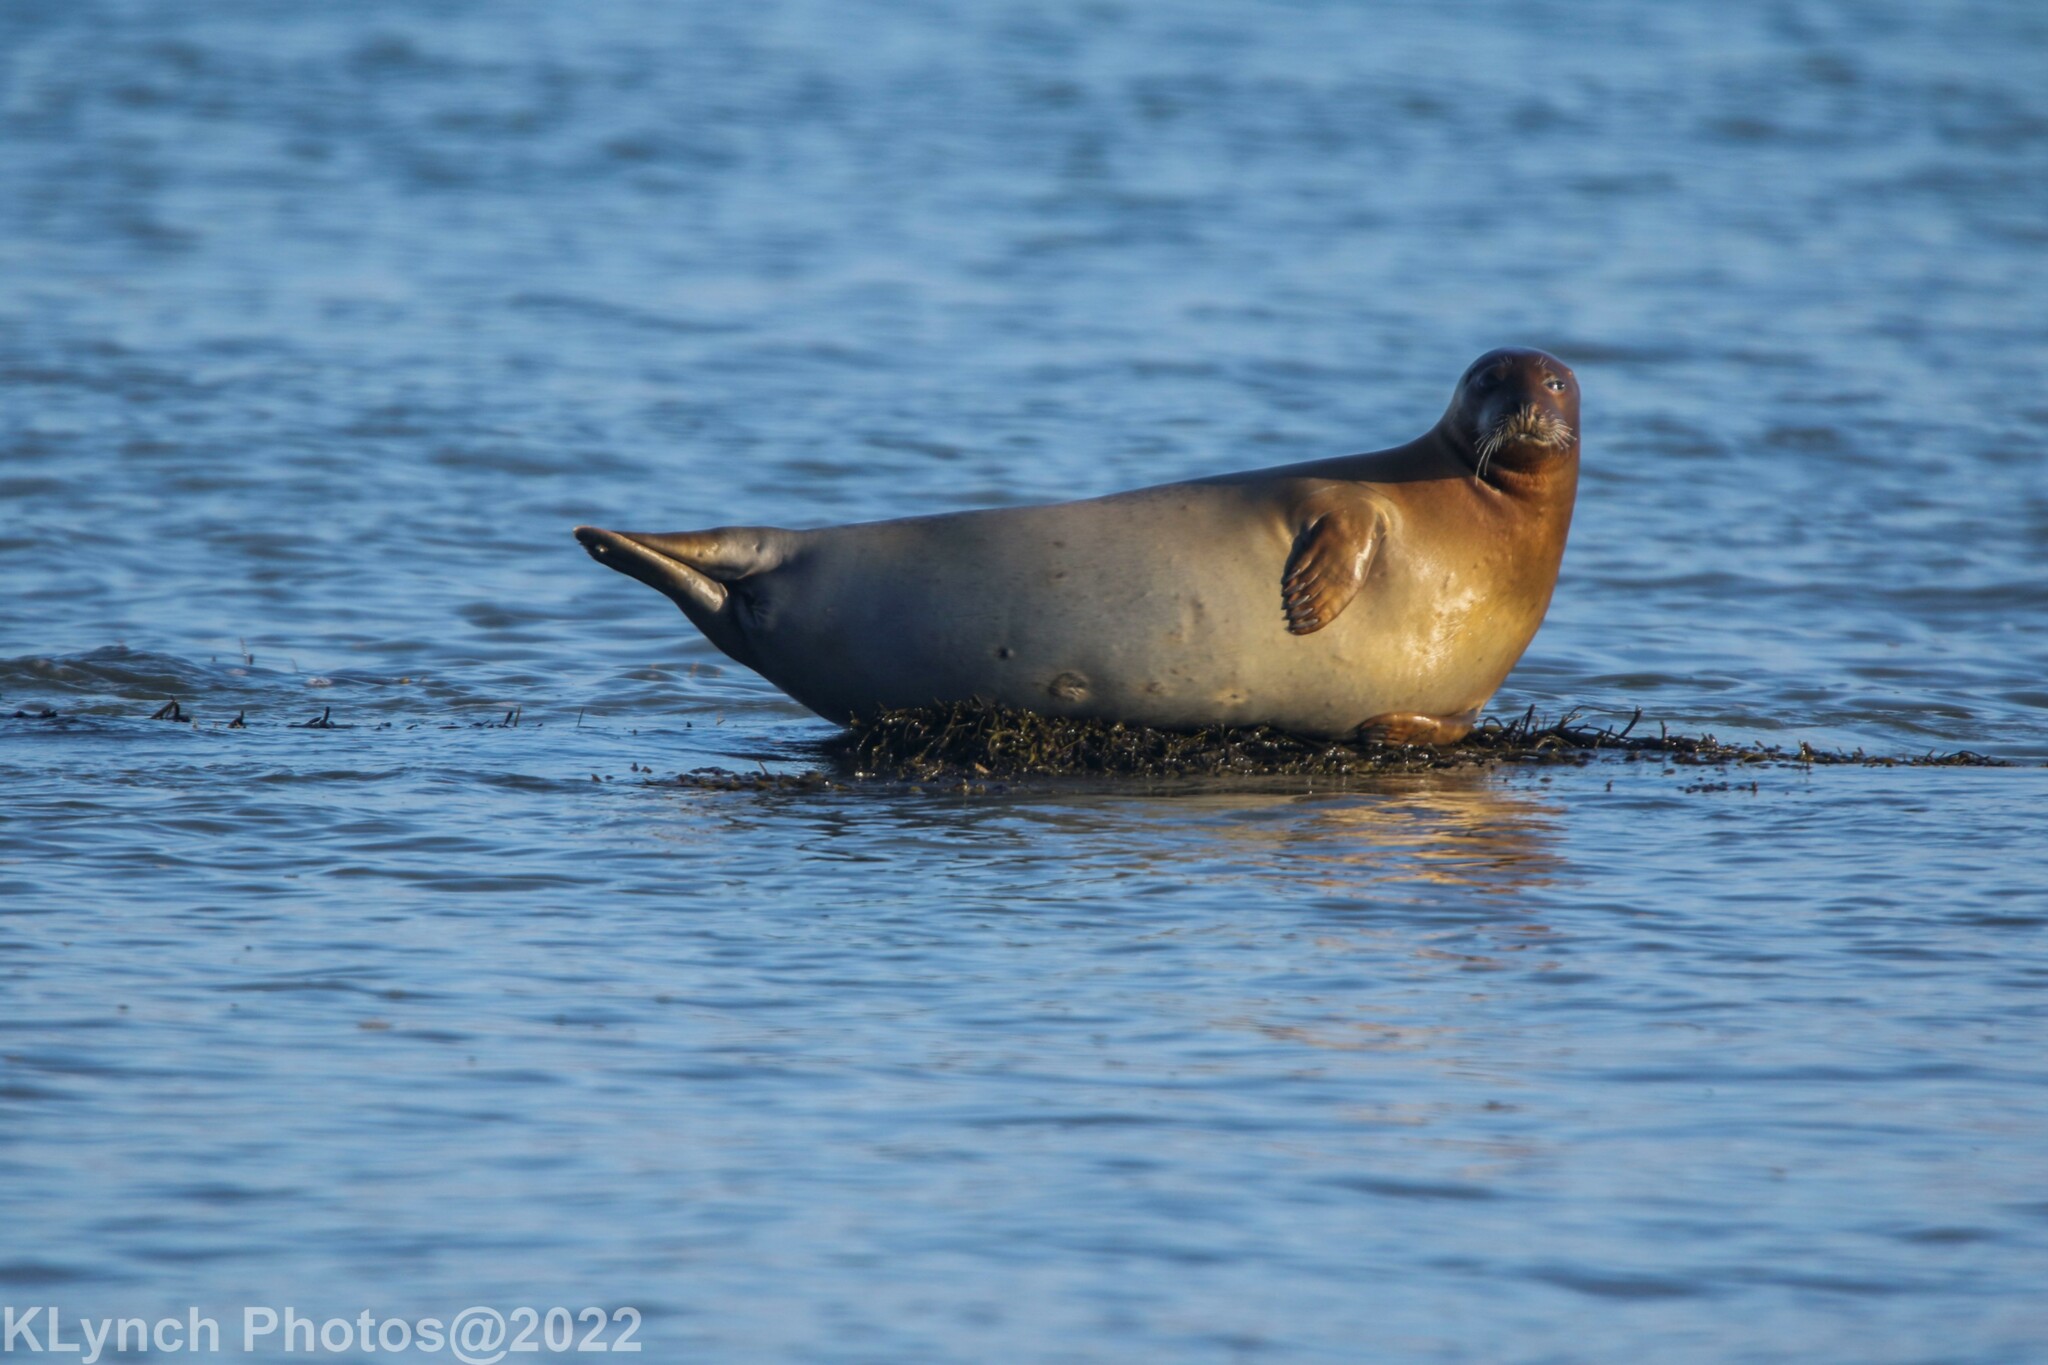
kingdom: Animalia
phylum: Chordata
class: Mammalia
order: Carnivora
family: Phocidae
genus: Phoca
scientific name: Phoca vitulina
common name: Harbor seal
